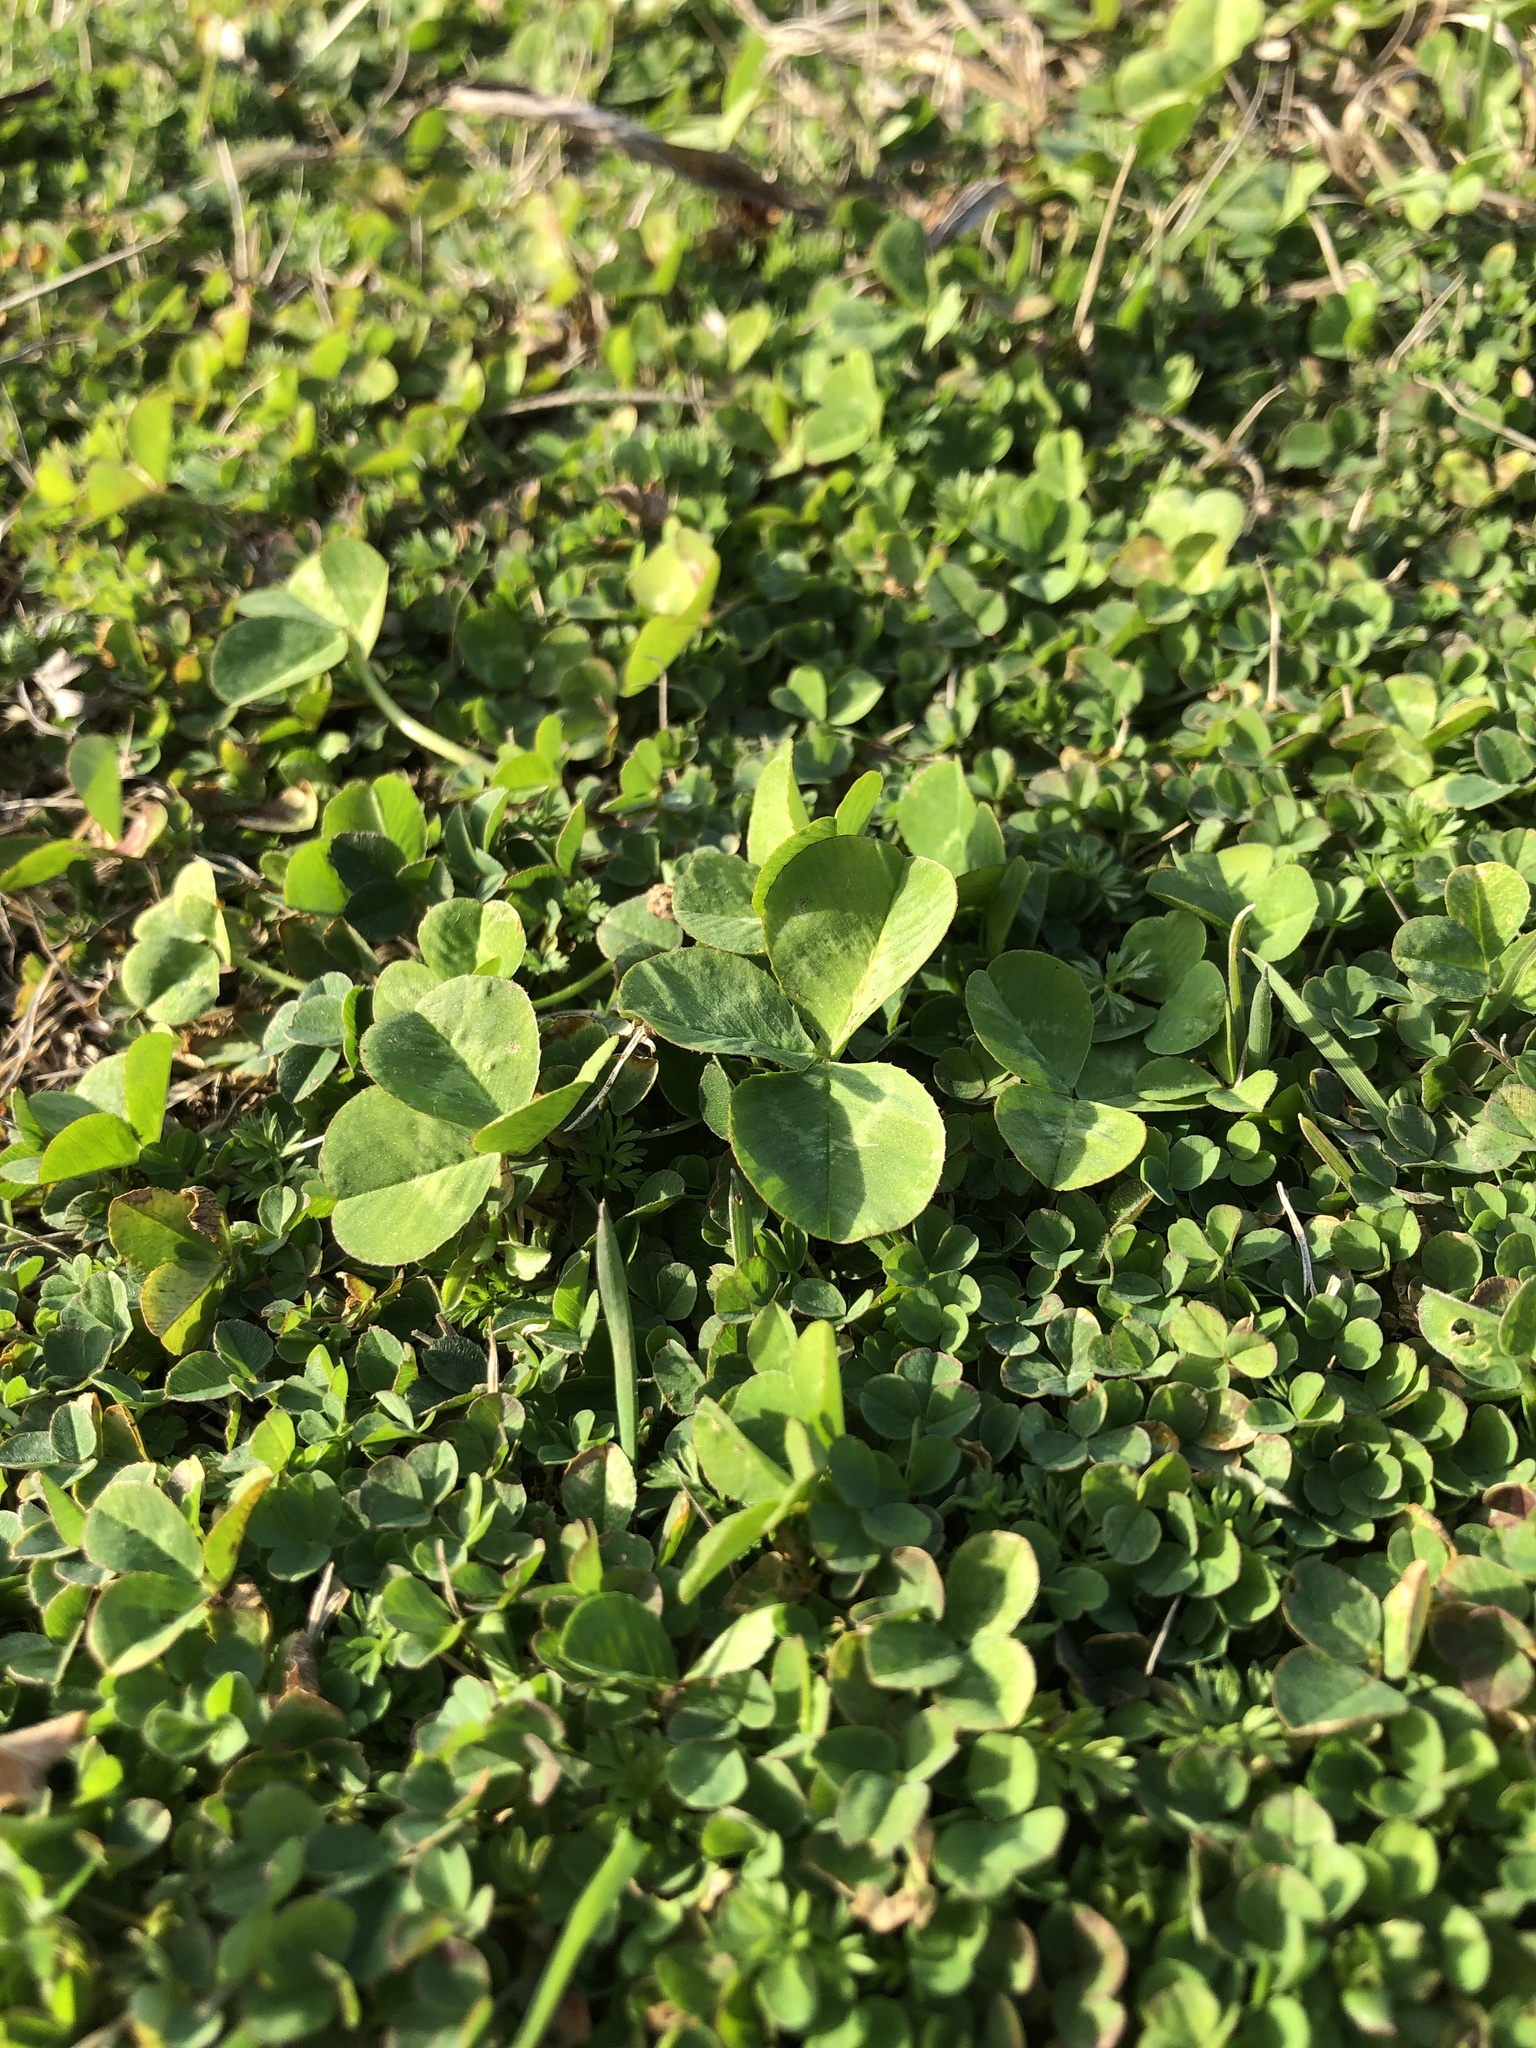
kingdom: Plantae
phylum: Tracheophyta
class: Magnoliopsida
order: Fabales
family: Fabaceae
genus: Trifolium
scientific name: Trifolium repens
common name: White clover
